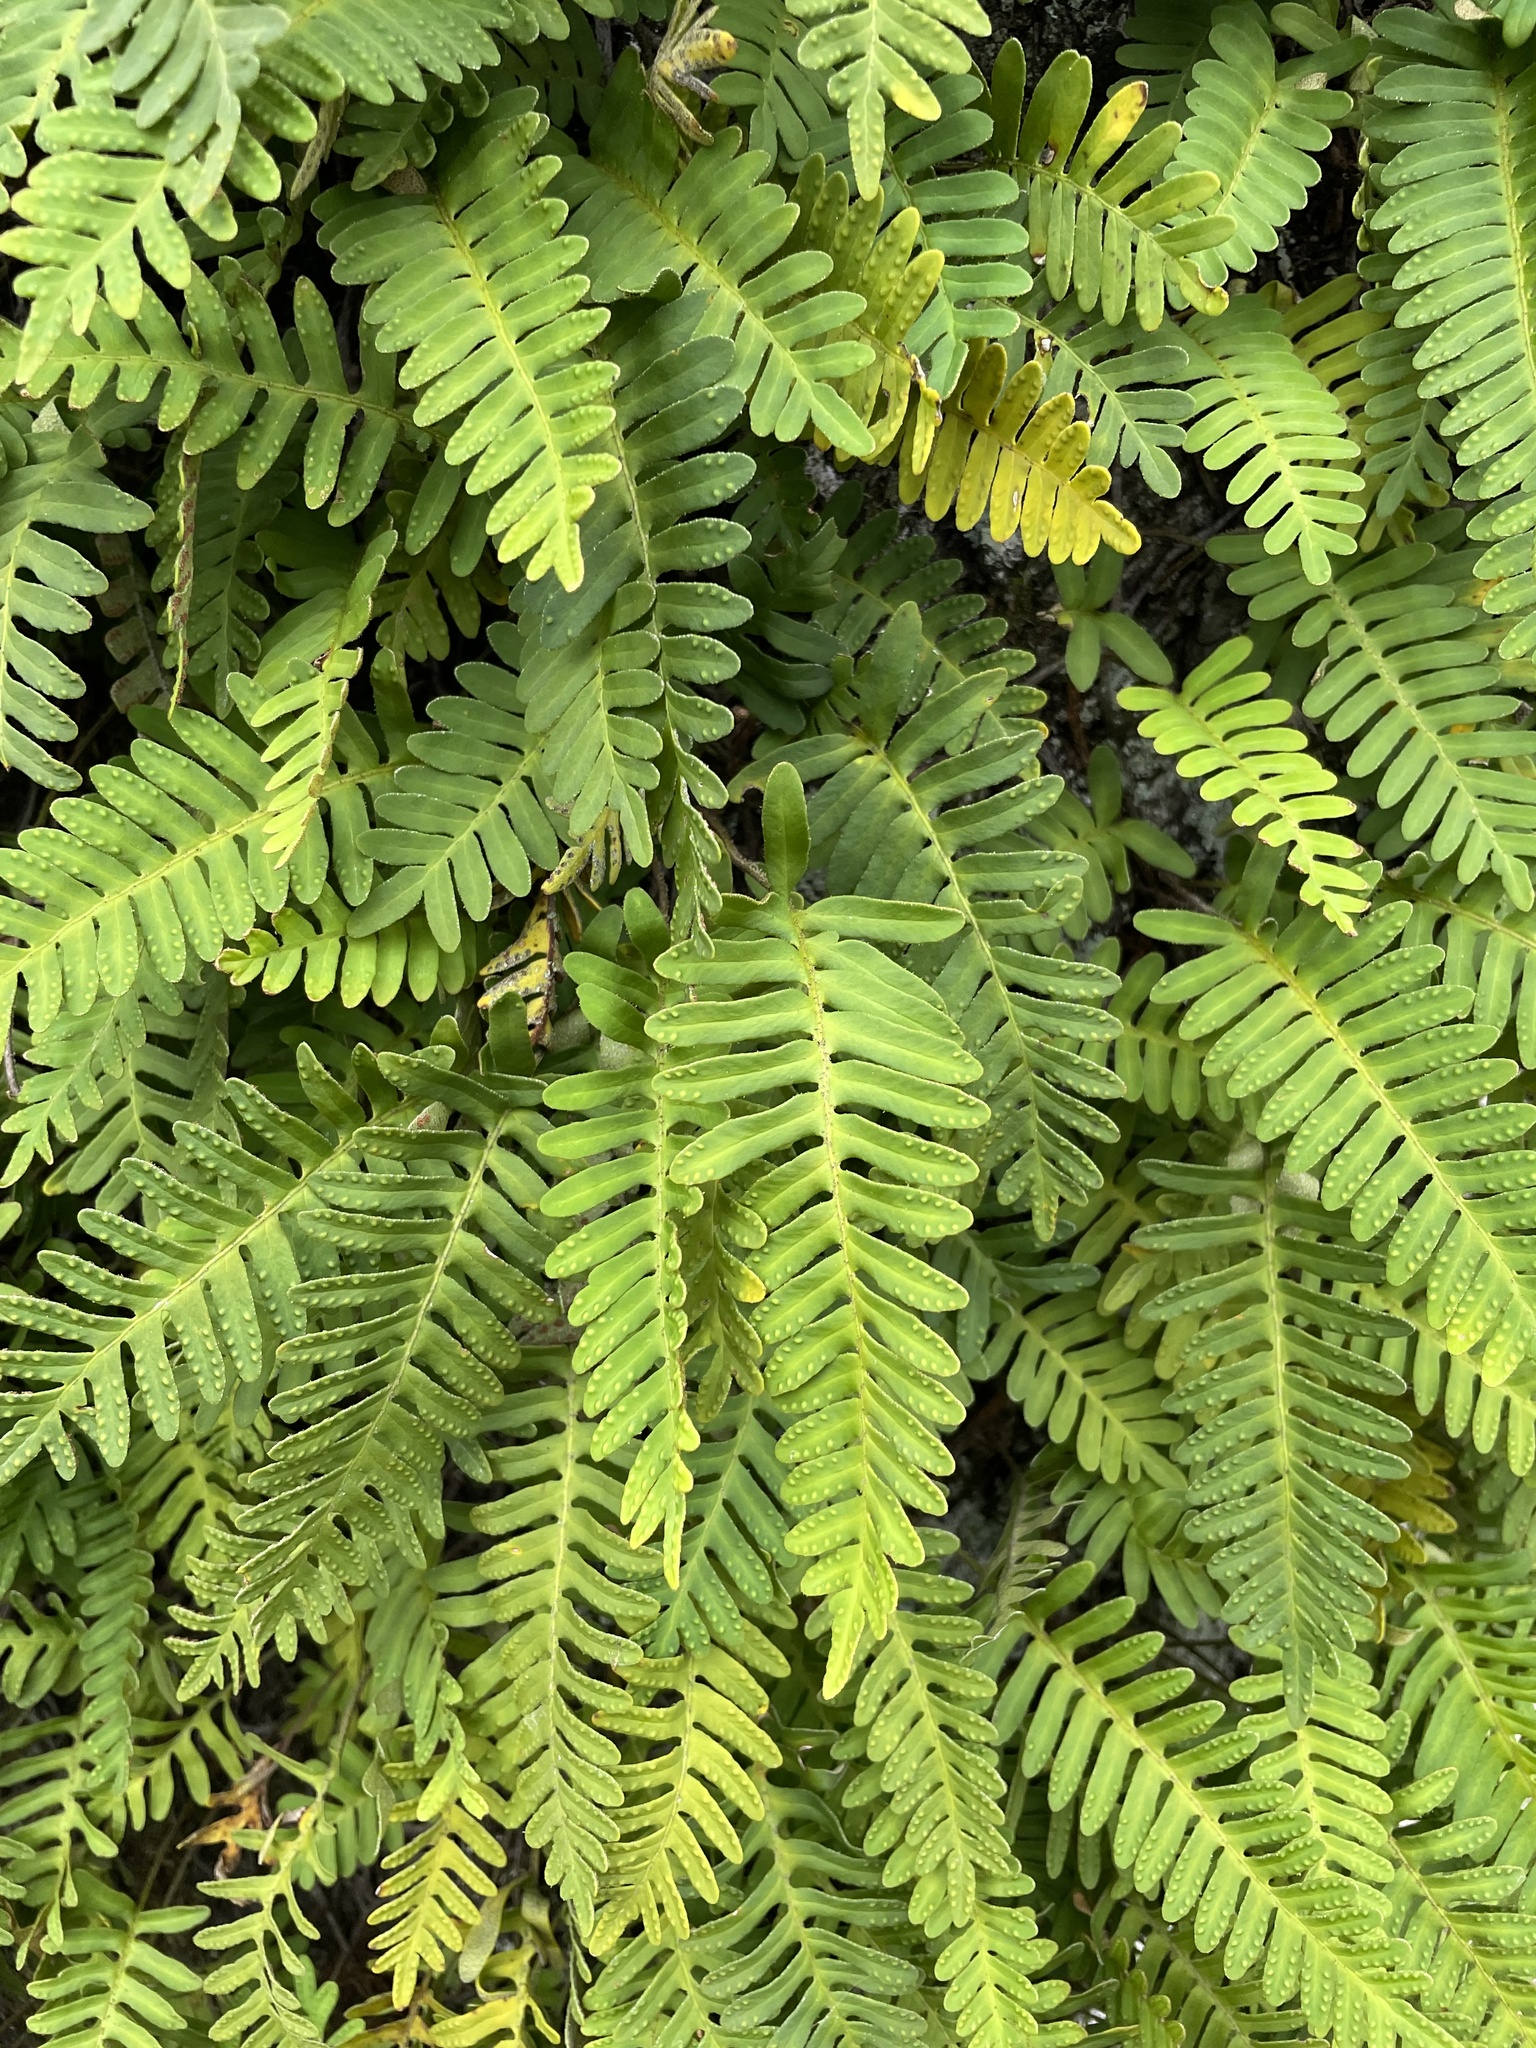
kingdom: Plantae
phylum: Tracheophyta
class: Polypodiopsida
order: Polypodiales
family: Polypodiaceae
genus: Pleopeltis
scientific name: Pleopeltis michauxiana
